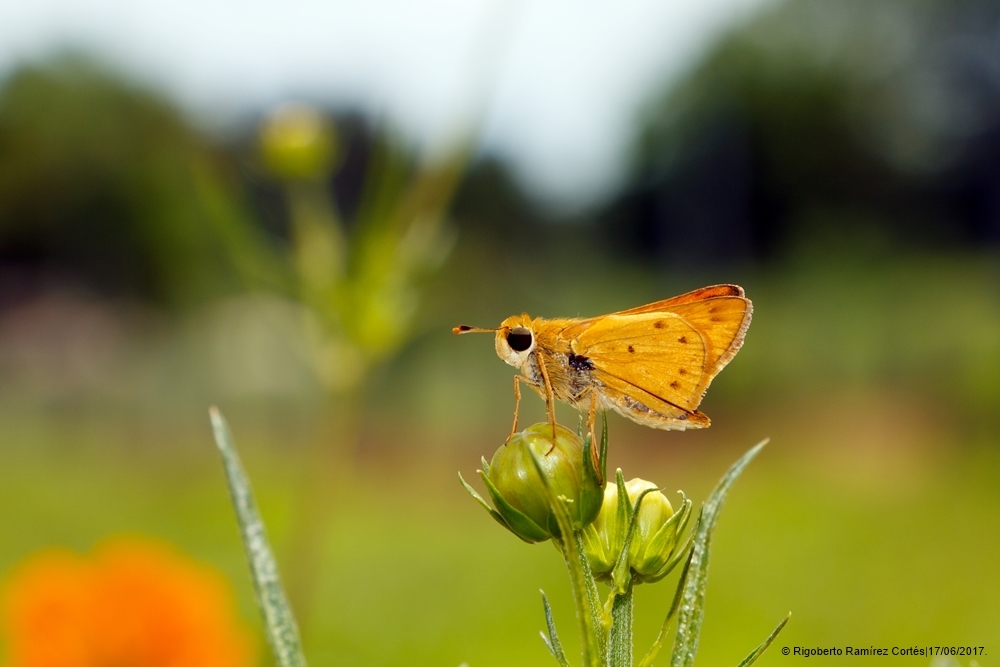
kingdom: Animalia
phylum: Arthropoda
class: Insecta
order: Lepidoptera
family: Hesperiidae
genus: Hylephila
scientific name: Hylephila phyleus
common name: Fiery skipper
